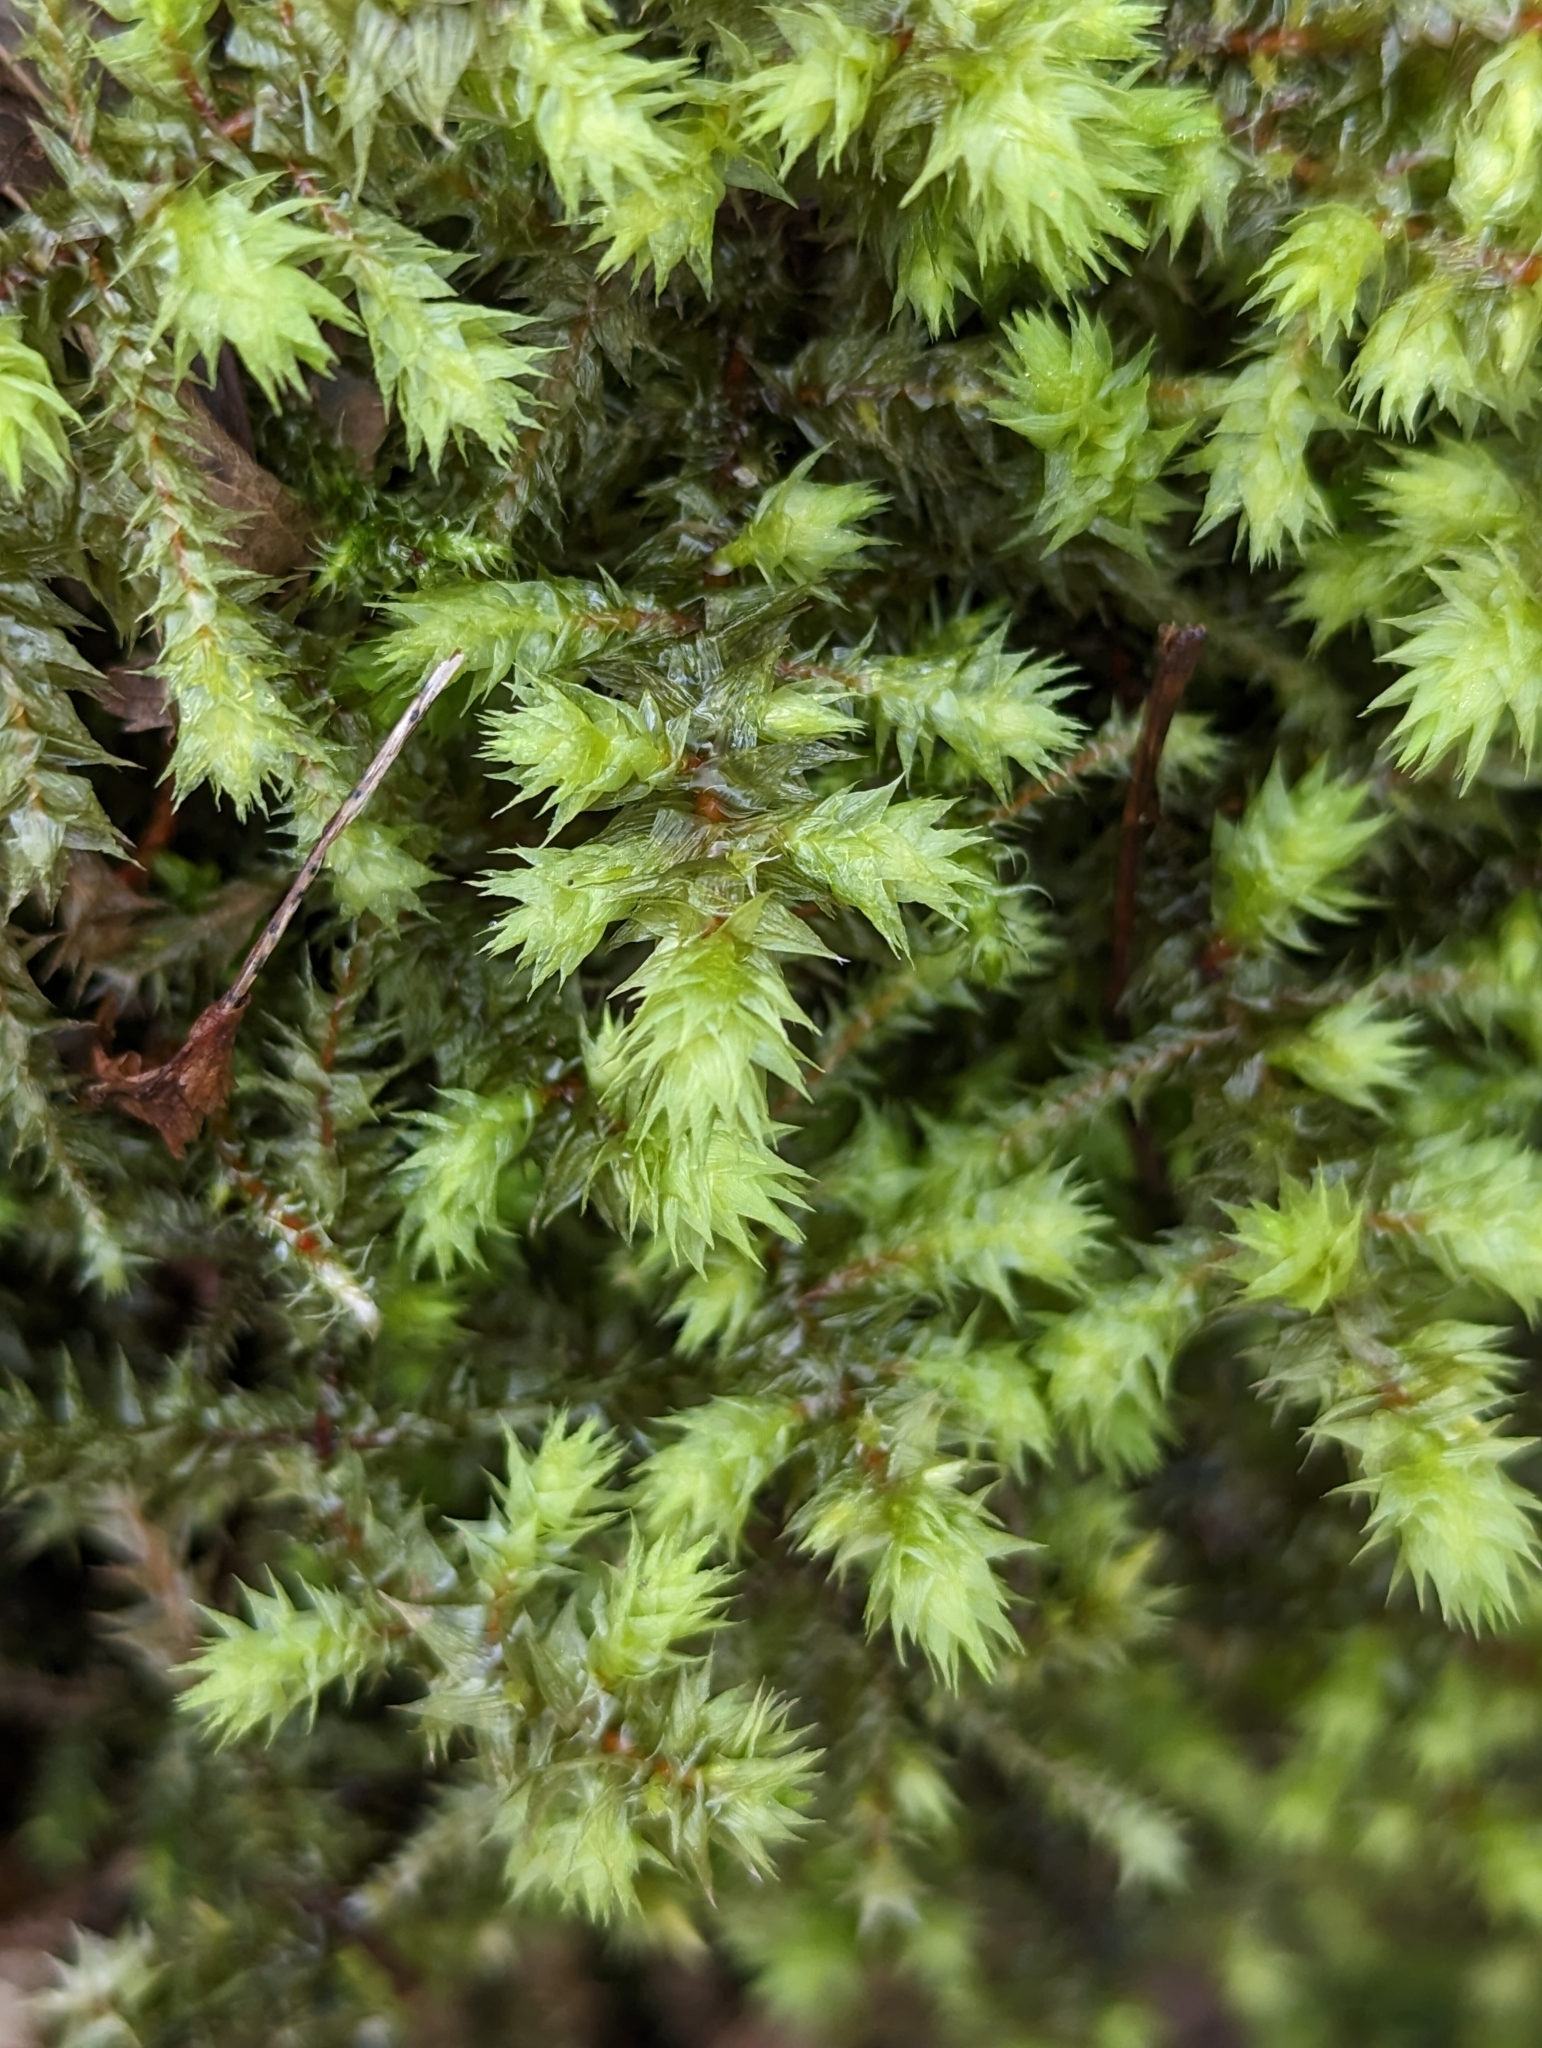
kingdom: Plantae
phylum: Bryophyta
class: Bryopsida
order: Hypnales
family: Hylocomiaceae
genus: Hylocomiadelphus
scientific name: Hylocomiadelphus triquetrus
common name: Rough goose neck moss
